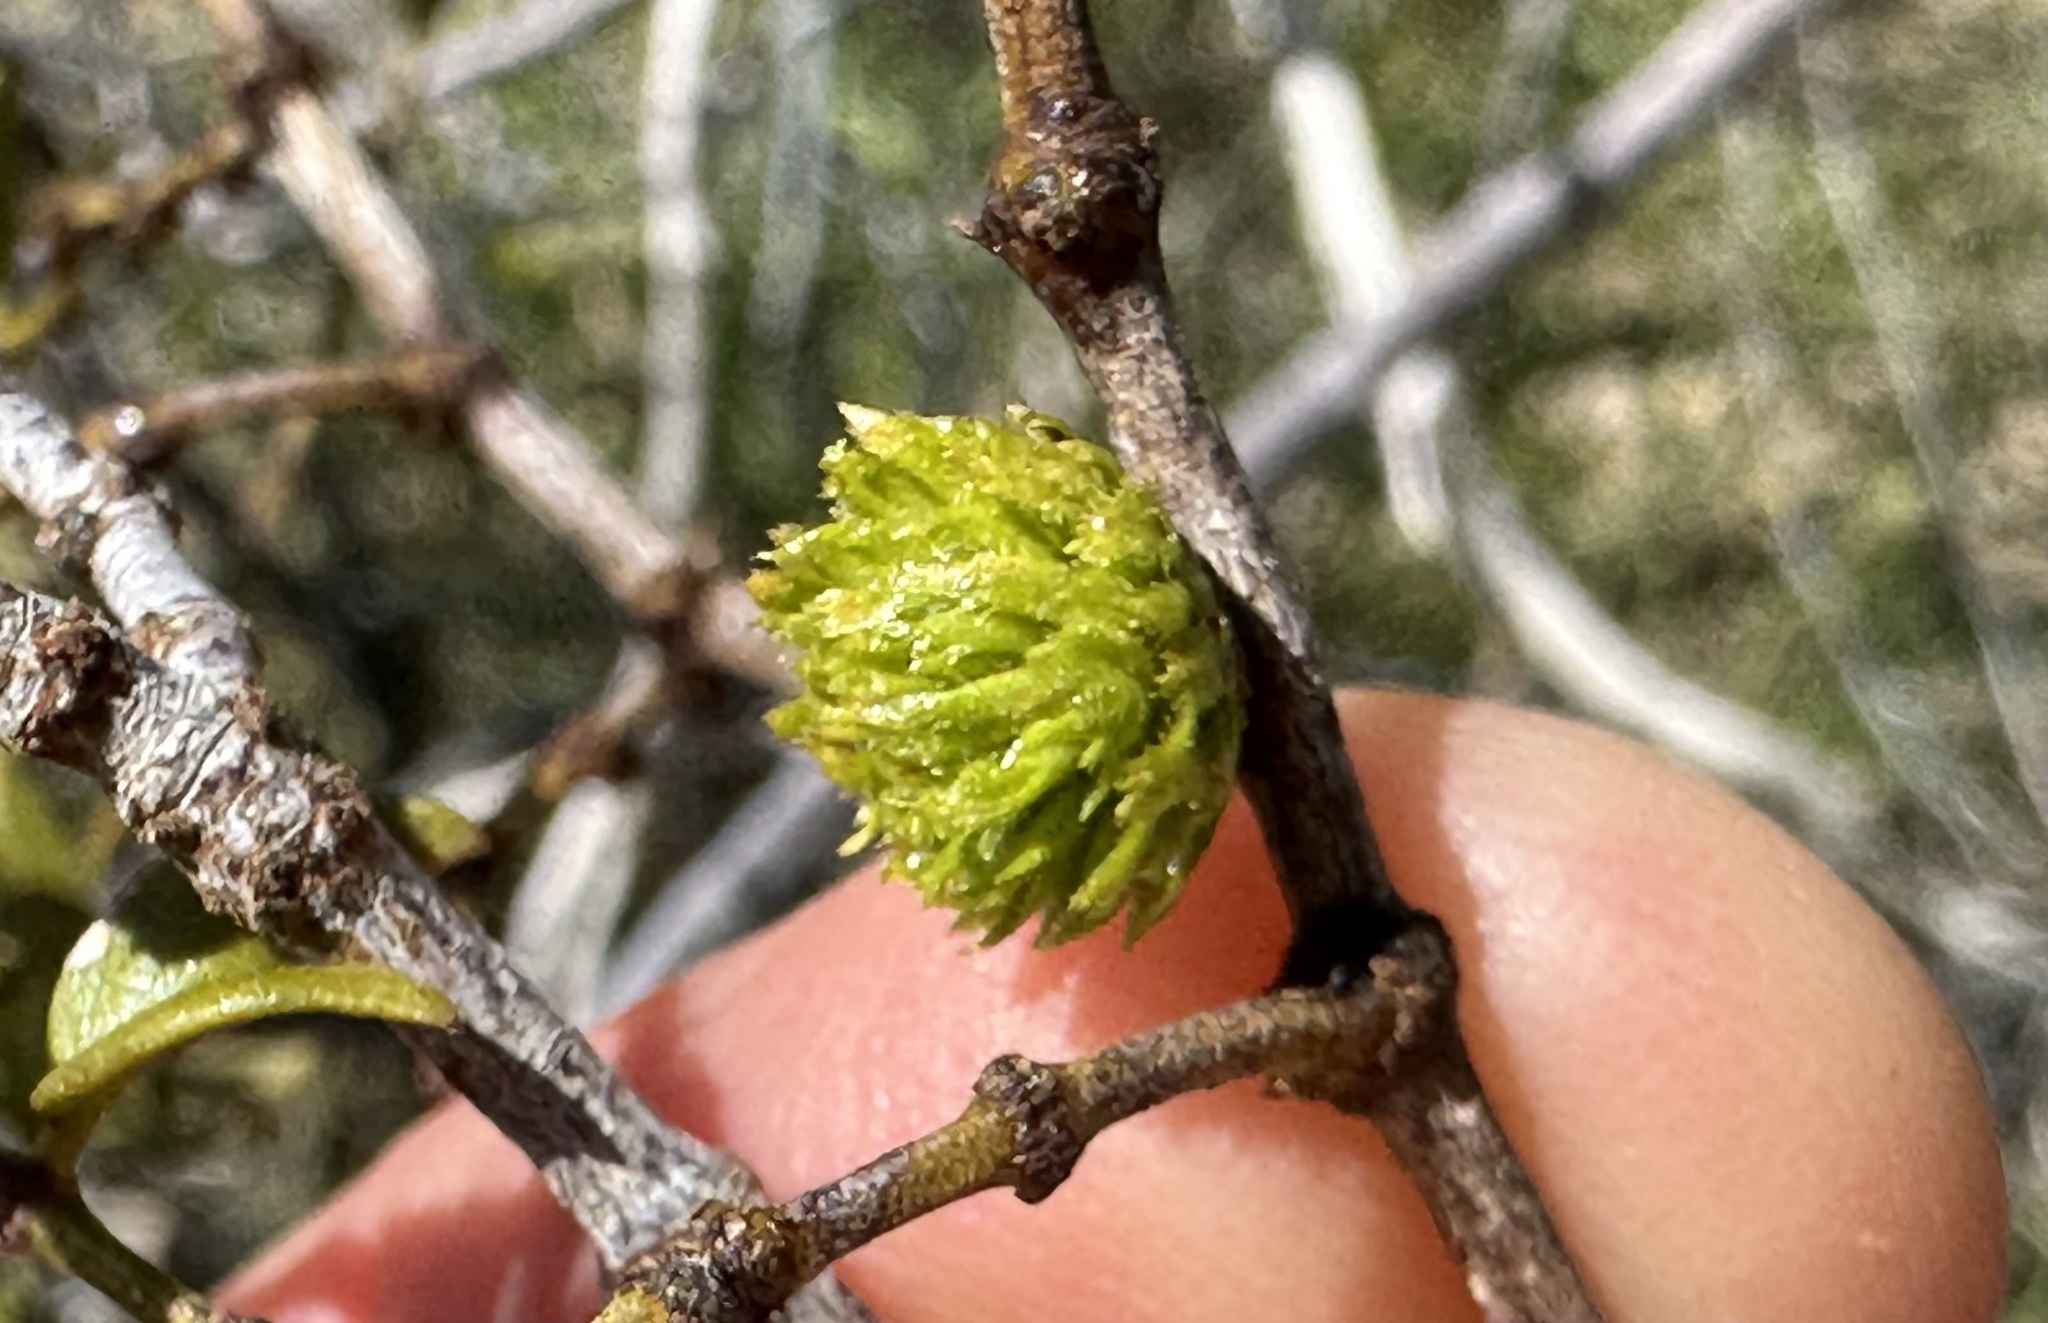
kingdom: Animalia
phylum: Arthropoda
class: Insecta
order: Diptera
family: Cecidomyiidae
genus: Asphondylia
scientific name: Asphondylia foliosa
